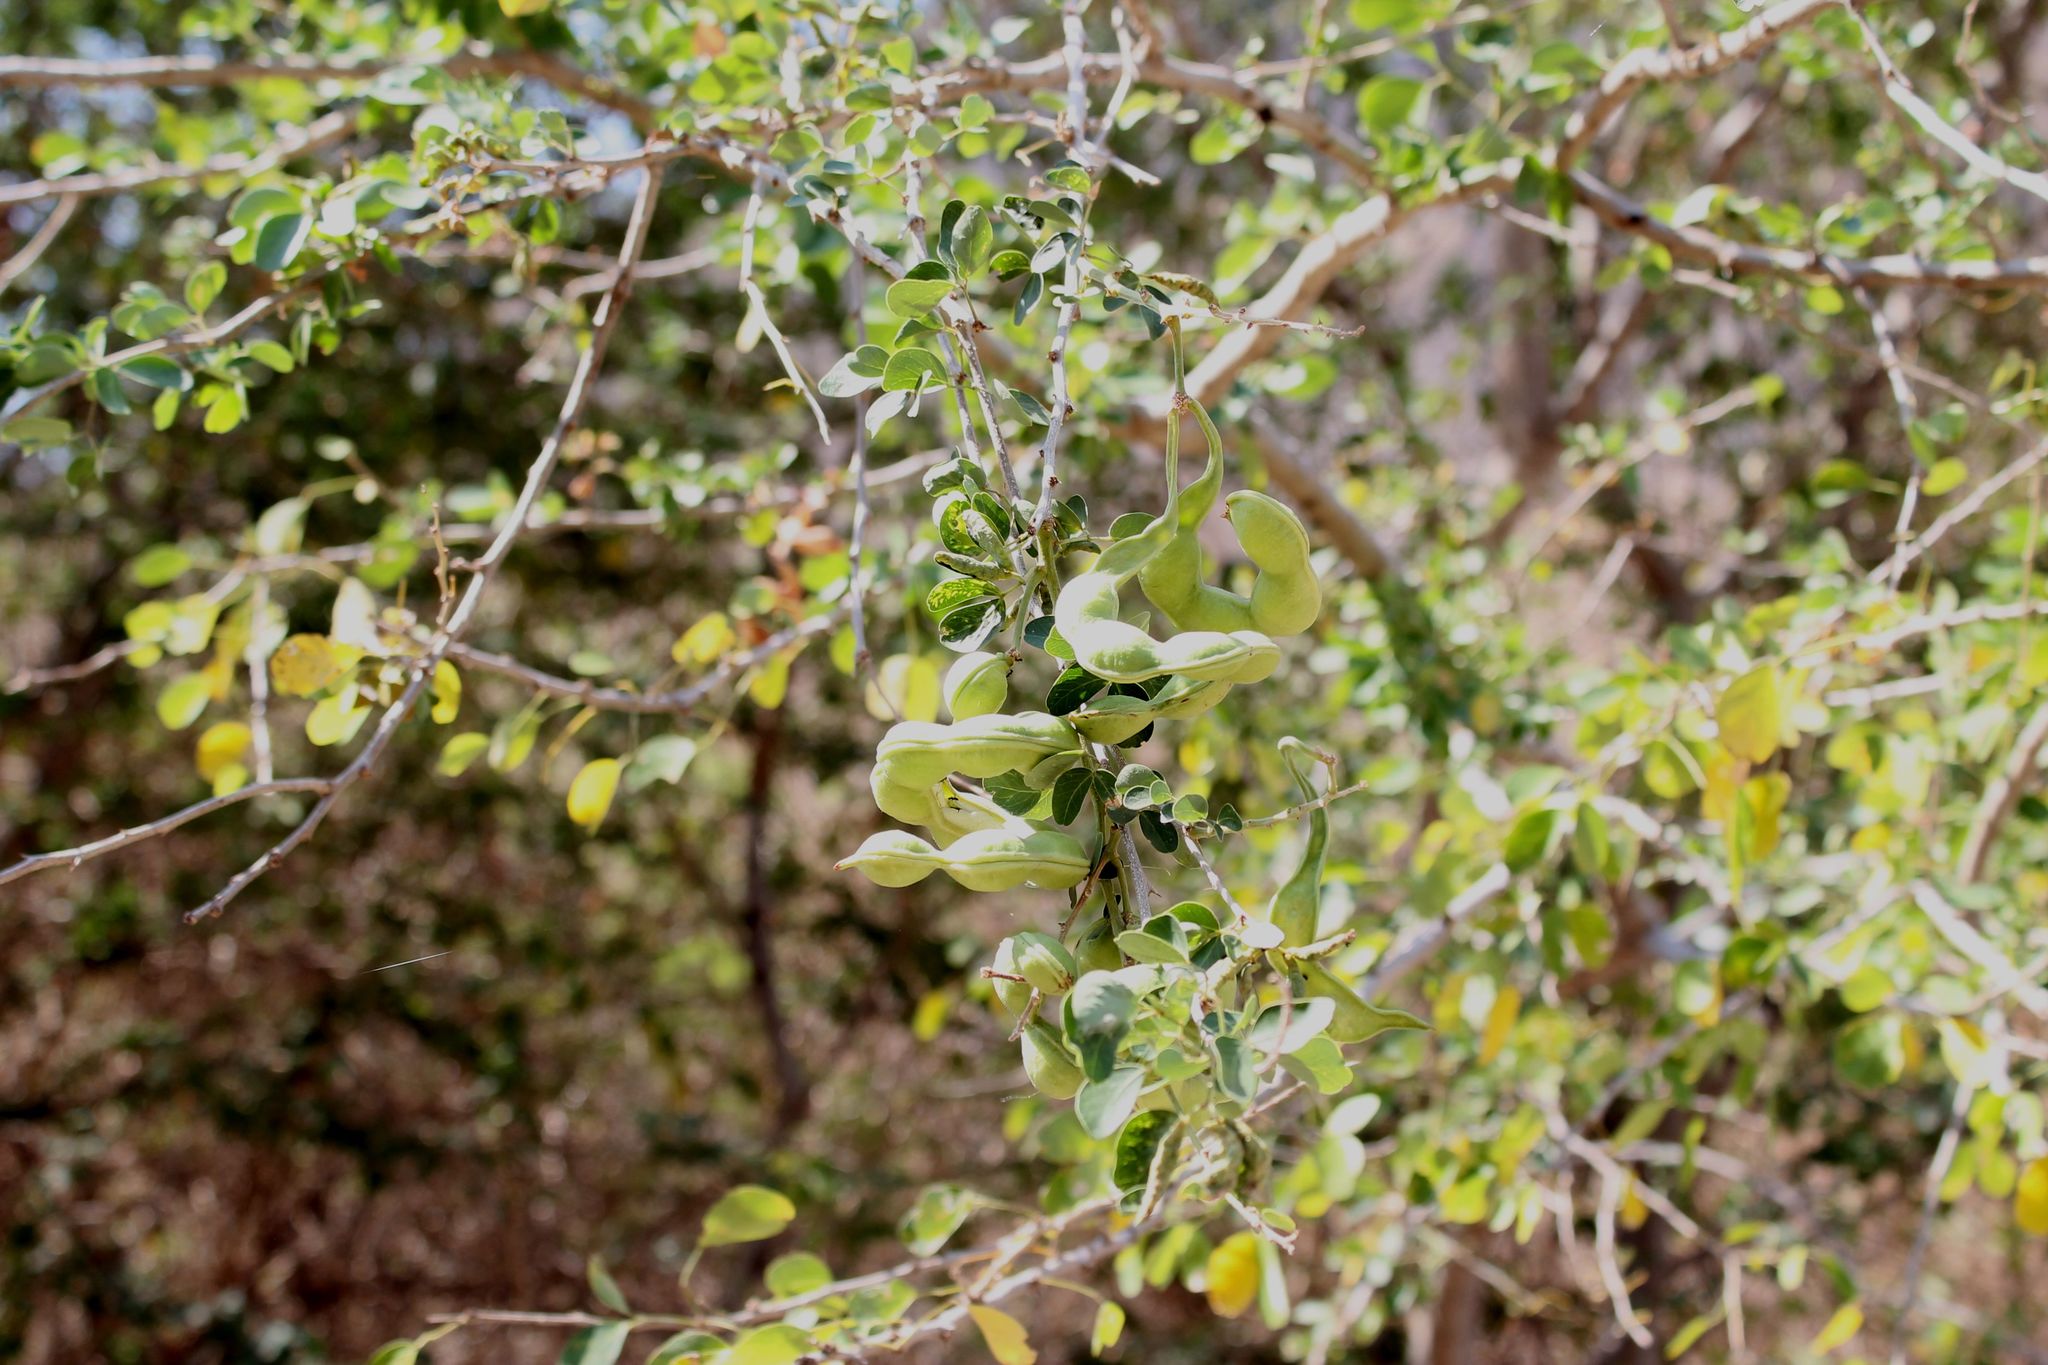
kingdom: Plantae
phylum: Tracheophyta
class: Magnoliopsida
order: Fabales
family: Fabaceae
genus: Pithecellobium
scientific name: Pithecellobium dulce
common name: Monkeypod
